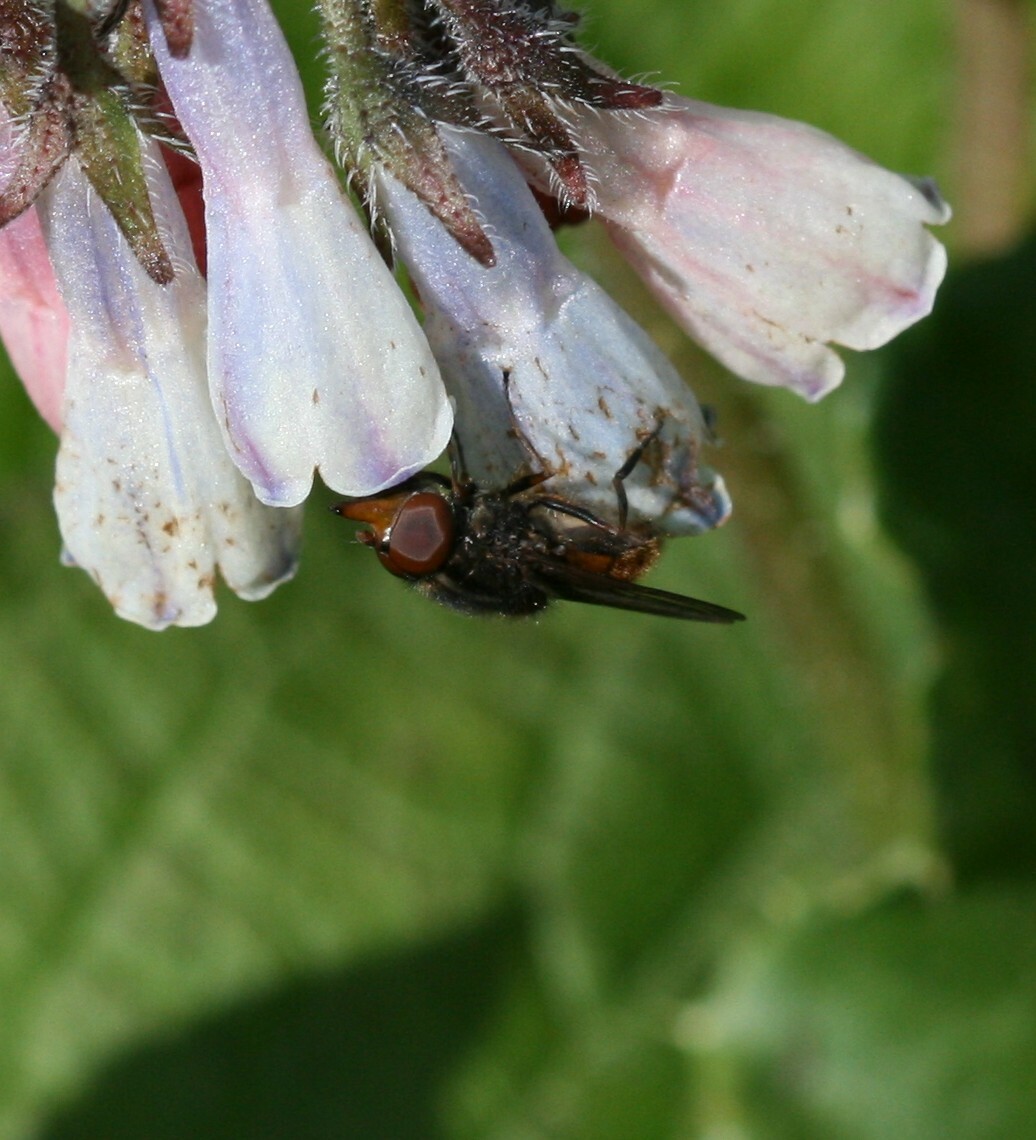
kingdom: Animalia
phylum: Arthropoda
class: Insecta
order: Diptera
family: Syrphidae
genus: Rhingia
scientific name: Rhingia campestris
